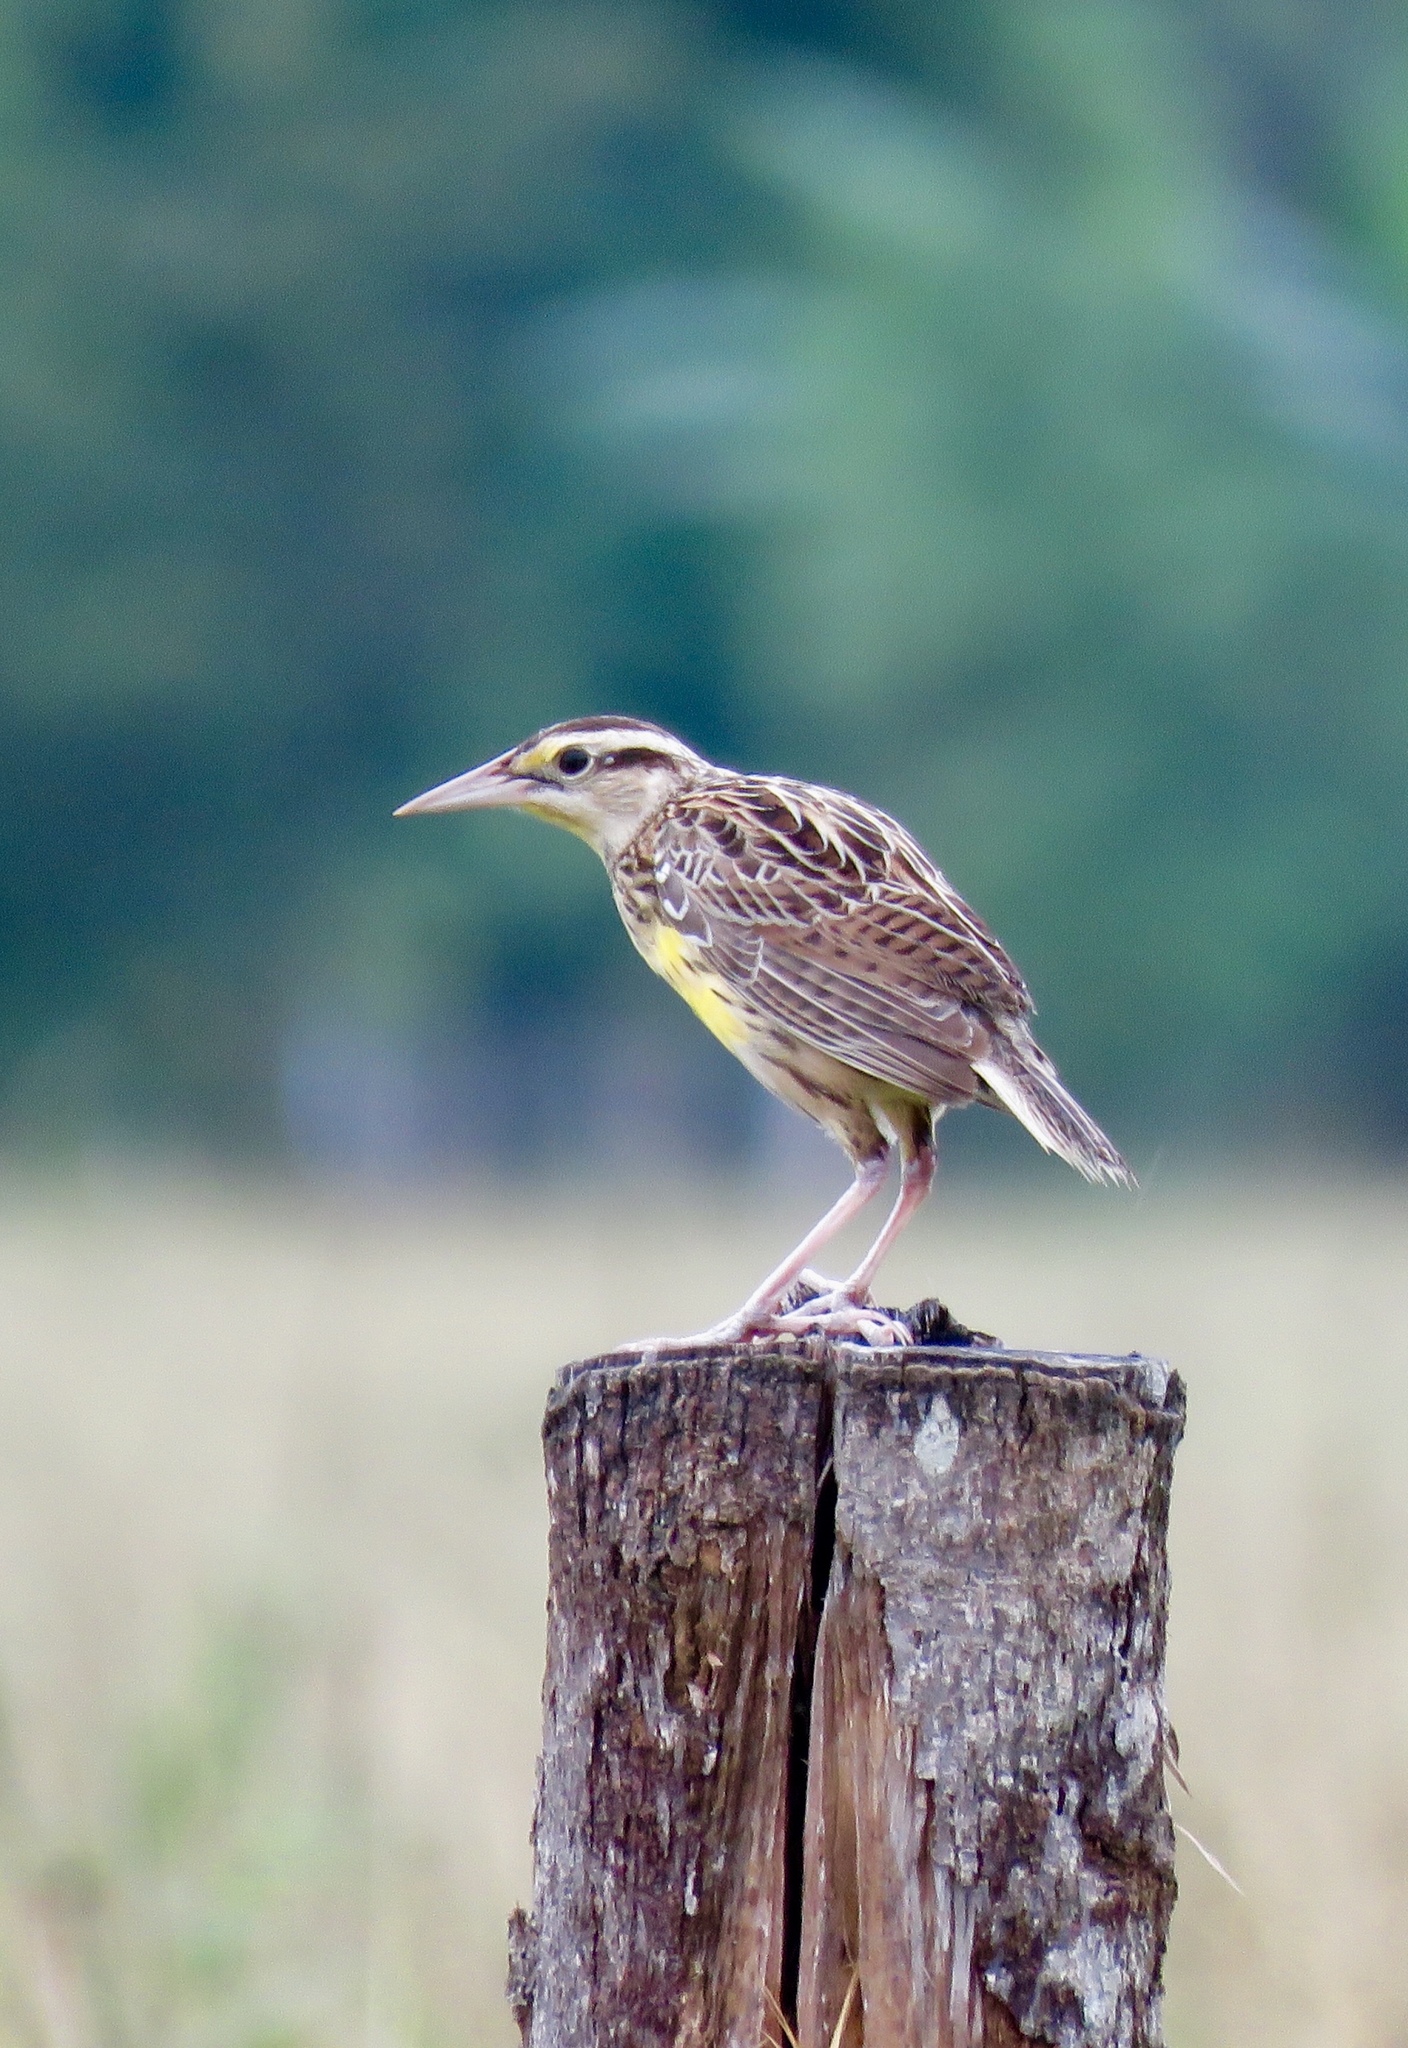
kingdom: Animalia
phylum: Chordata
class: Aves
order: Passeriformes
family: Icteridae
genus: Sturnella
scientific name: Sturnella magna
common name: Eastern meadowlark
